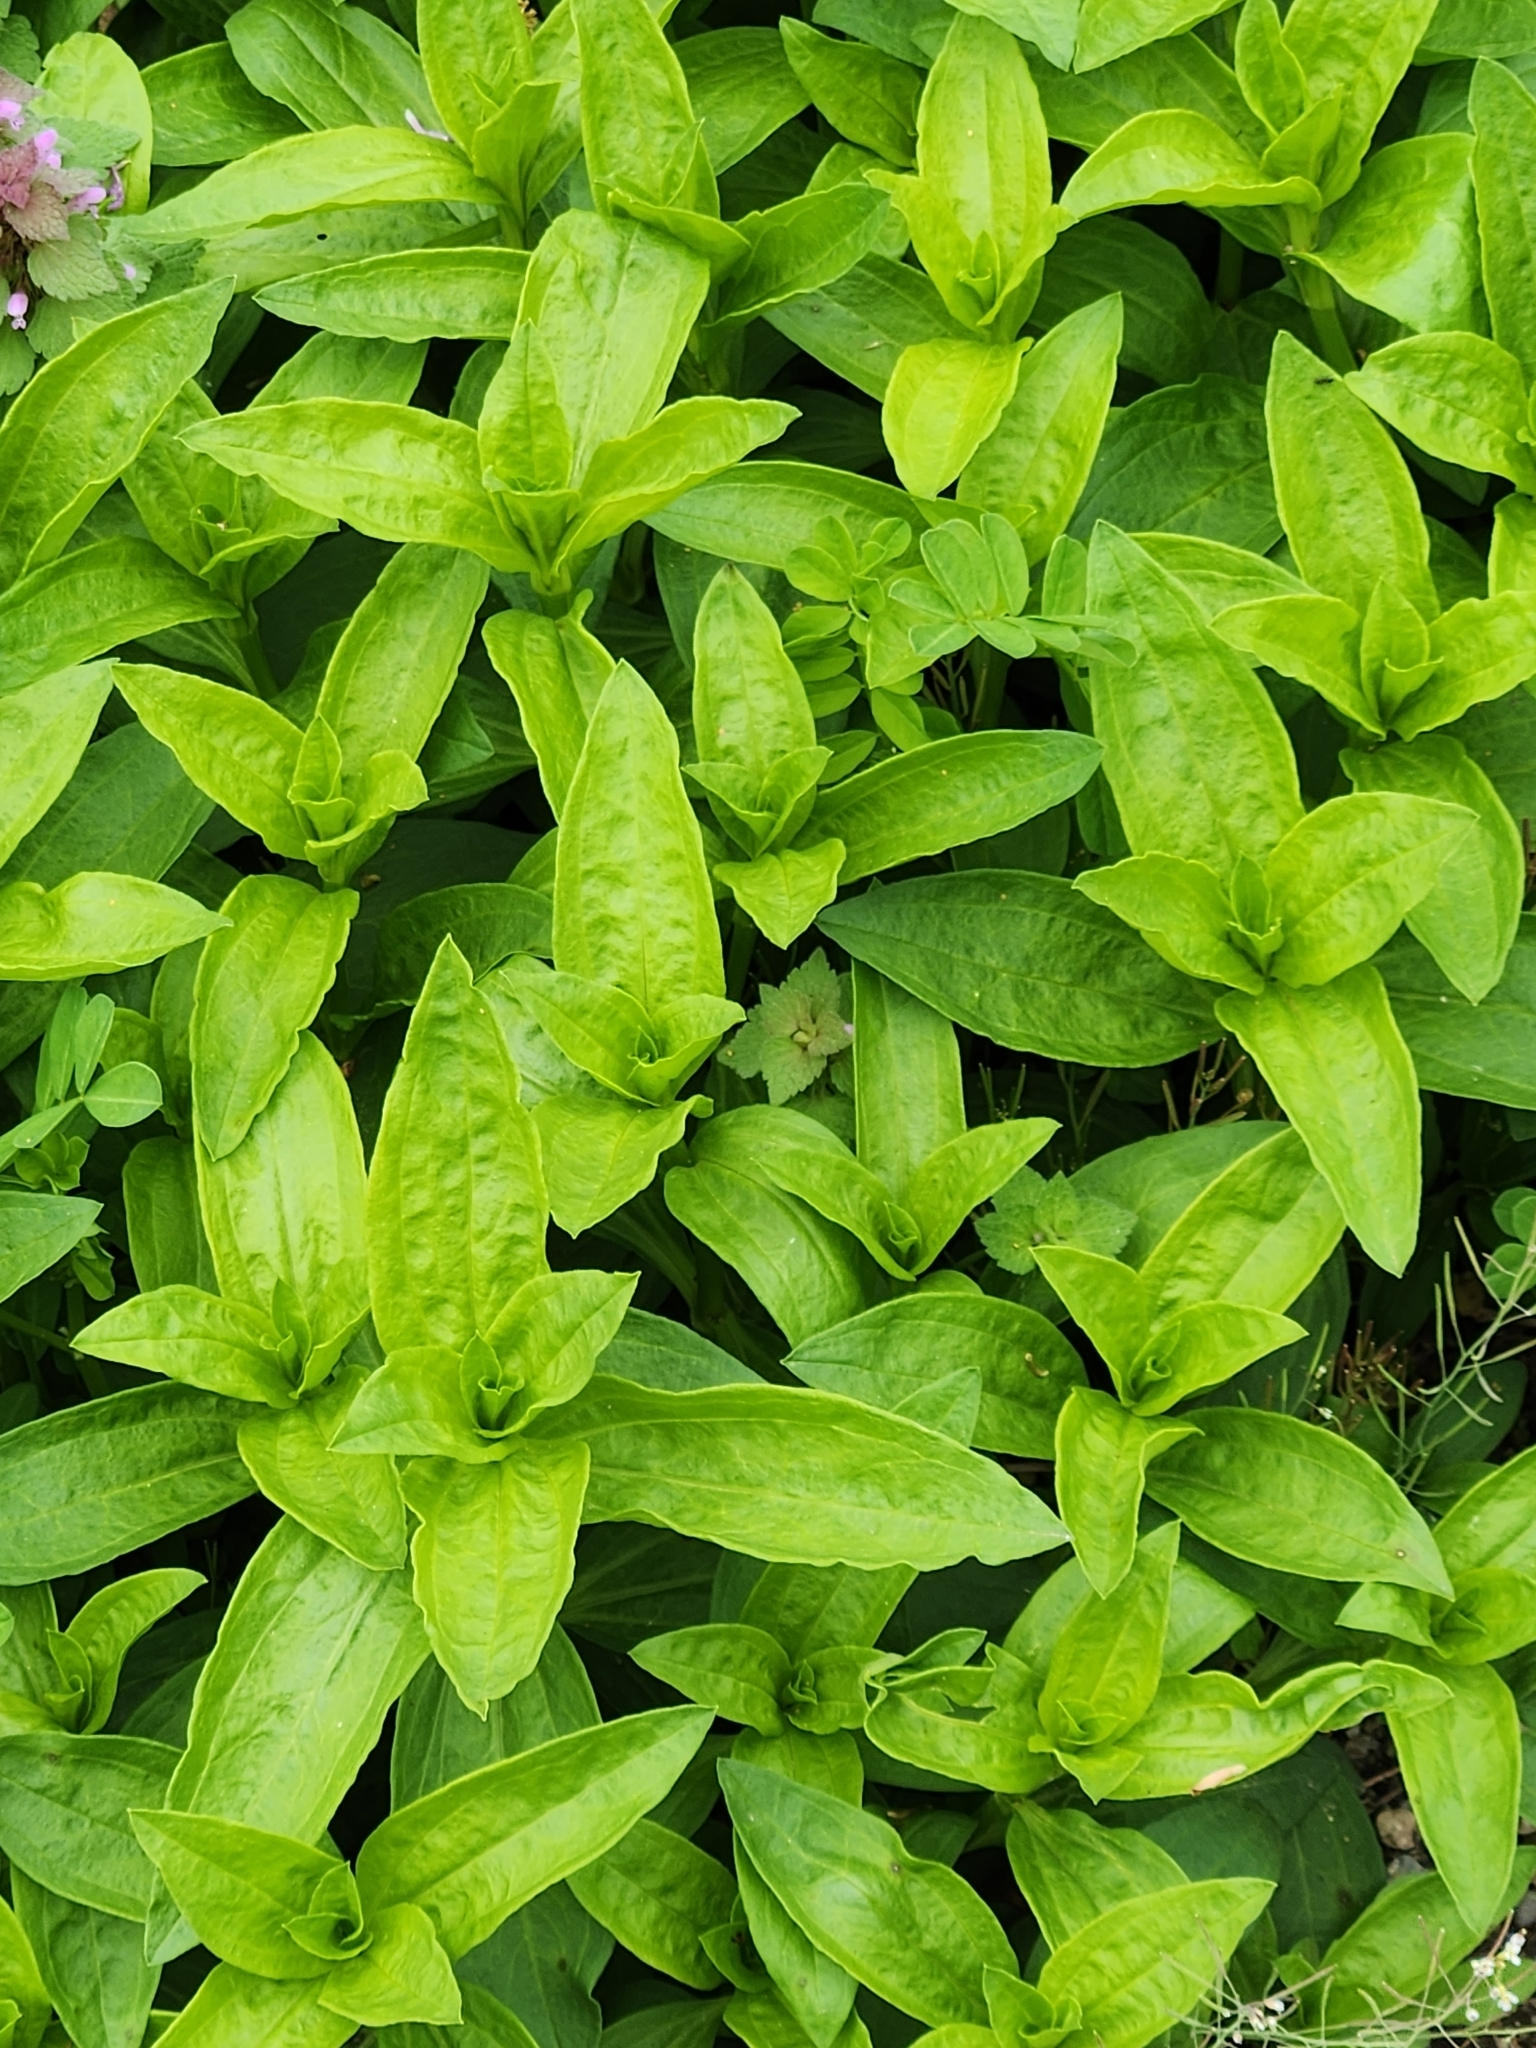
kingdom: Plantae
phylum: Tracheophyta
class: Magnoliopsida
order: Caryophyllales
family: Caryophyllaceae
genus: Saponaria
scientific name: Saponaria officinalis
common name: Soapwort
